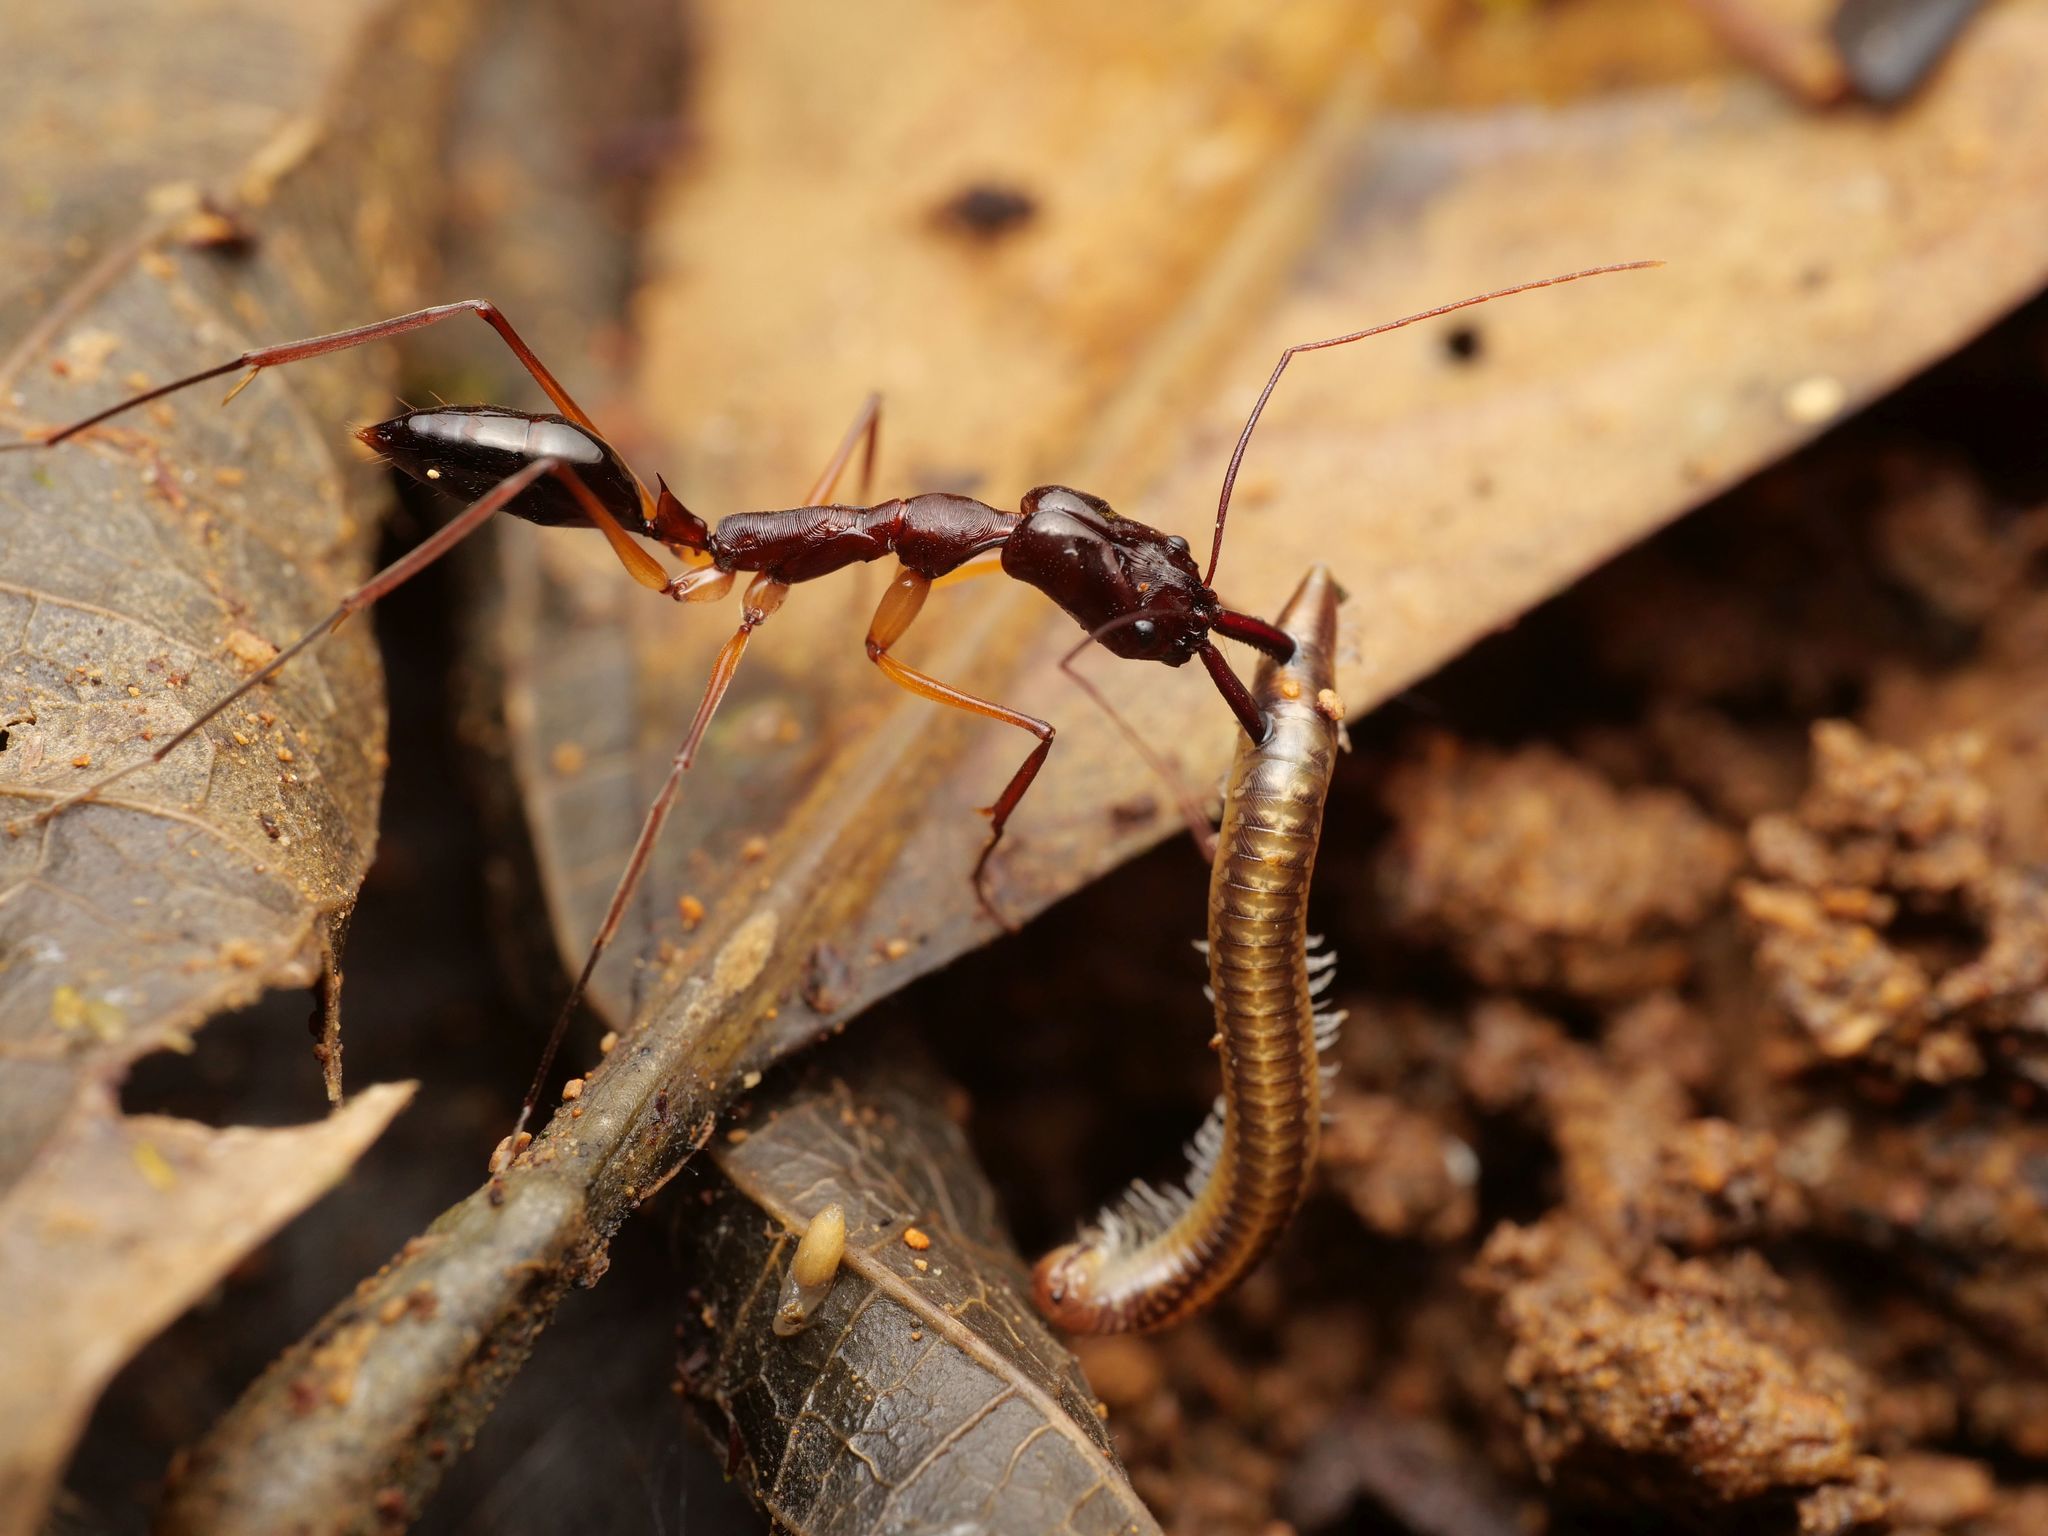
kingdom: Animalia
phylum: Arthropoda
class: Insecta
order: Hymenoptera
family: Formicidae
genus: Odontomachus
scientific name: Odontomachus mormo
